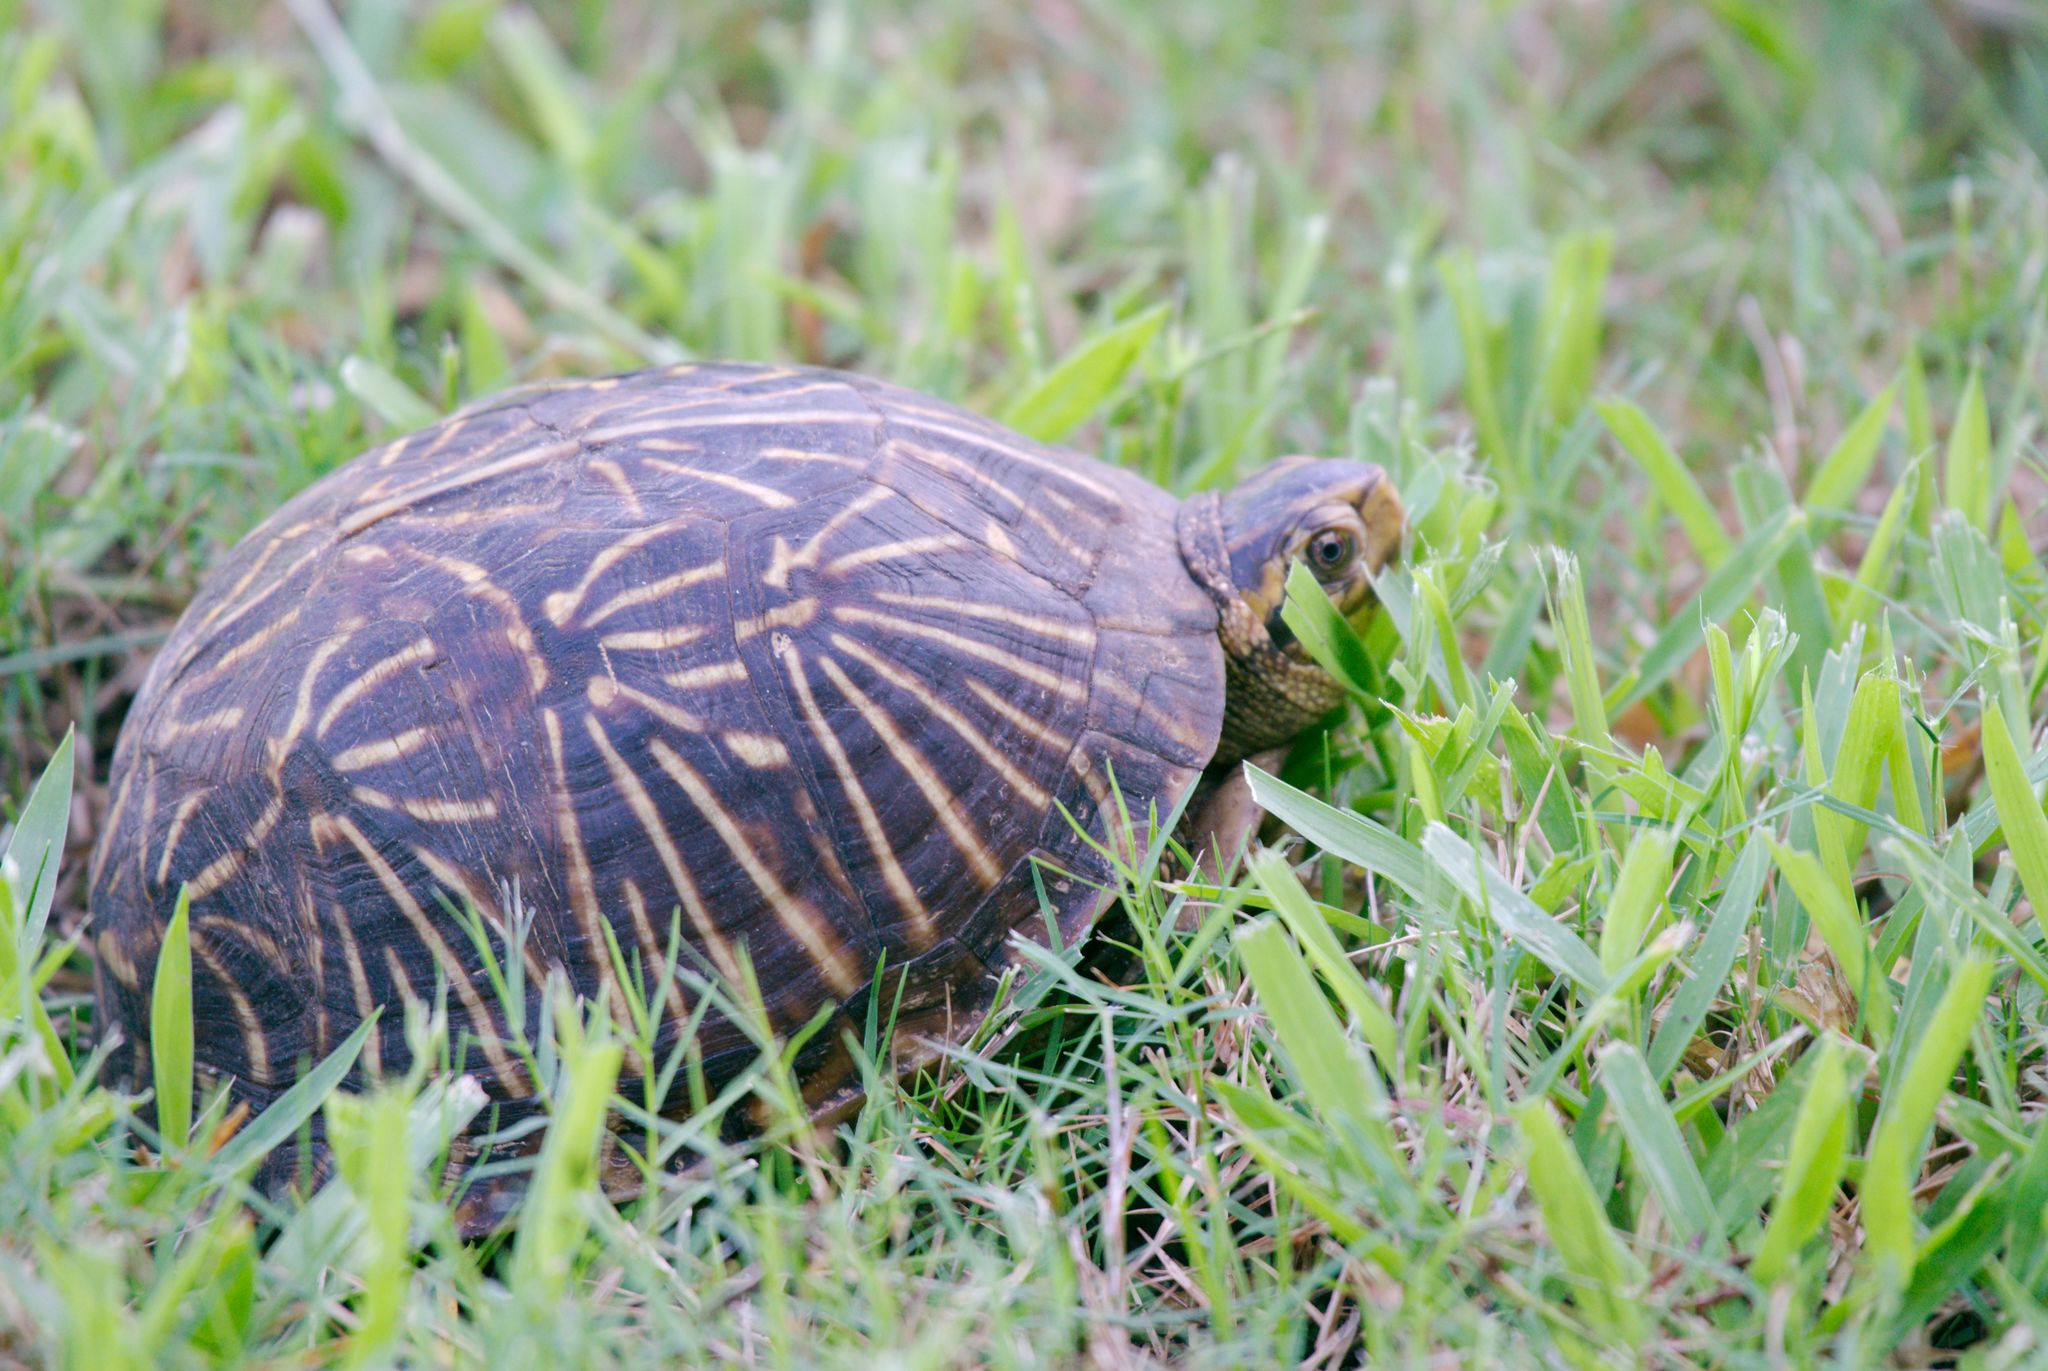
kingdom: Animalia
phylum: Chordata
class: Testudines
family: Emydidae
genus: Terrapene
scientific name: Terrapene carolina
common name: Common box turtle
